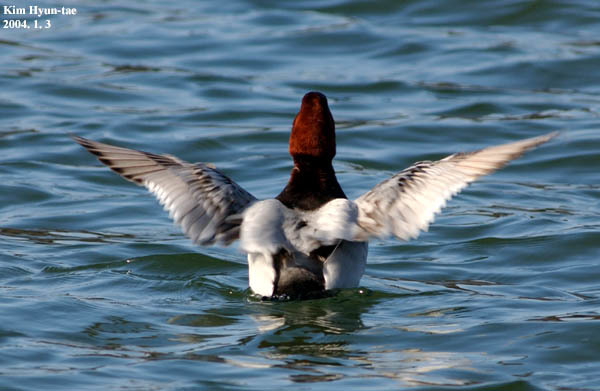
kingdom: Animalia
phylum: Chordata
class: Aves
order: Anseriformes
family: Anatidae
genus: Aythya
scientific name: Aythya ferina
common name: Common pochard
